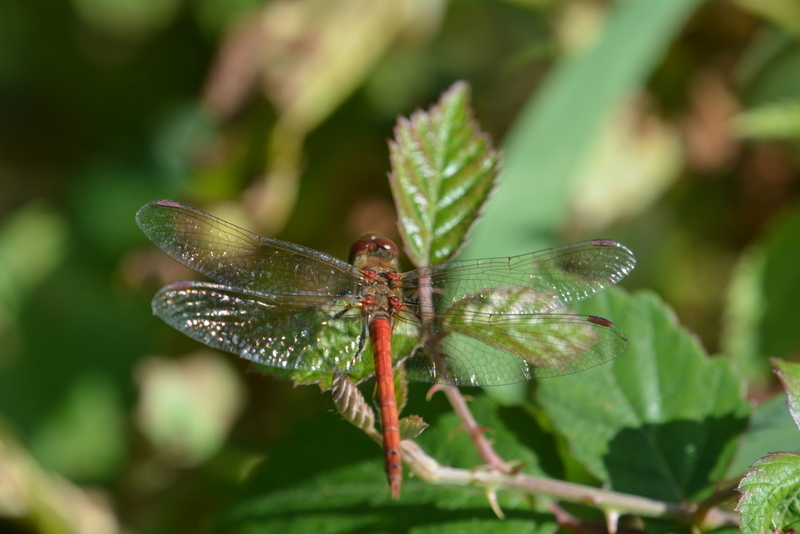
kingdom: Animalia
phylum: Arthropoda
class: Insecta
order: Odonata
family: Libellulidae
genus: Sympetrum
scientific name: Sympetrum striolatum
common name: Common darter
